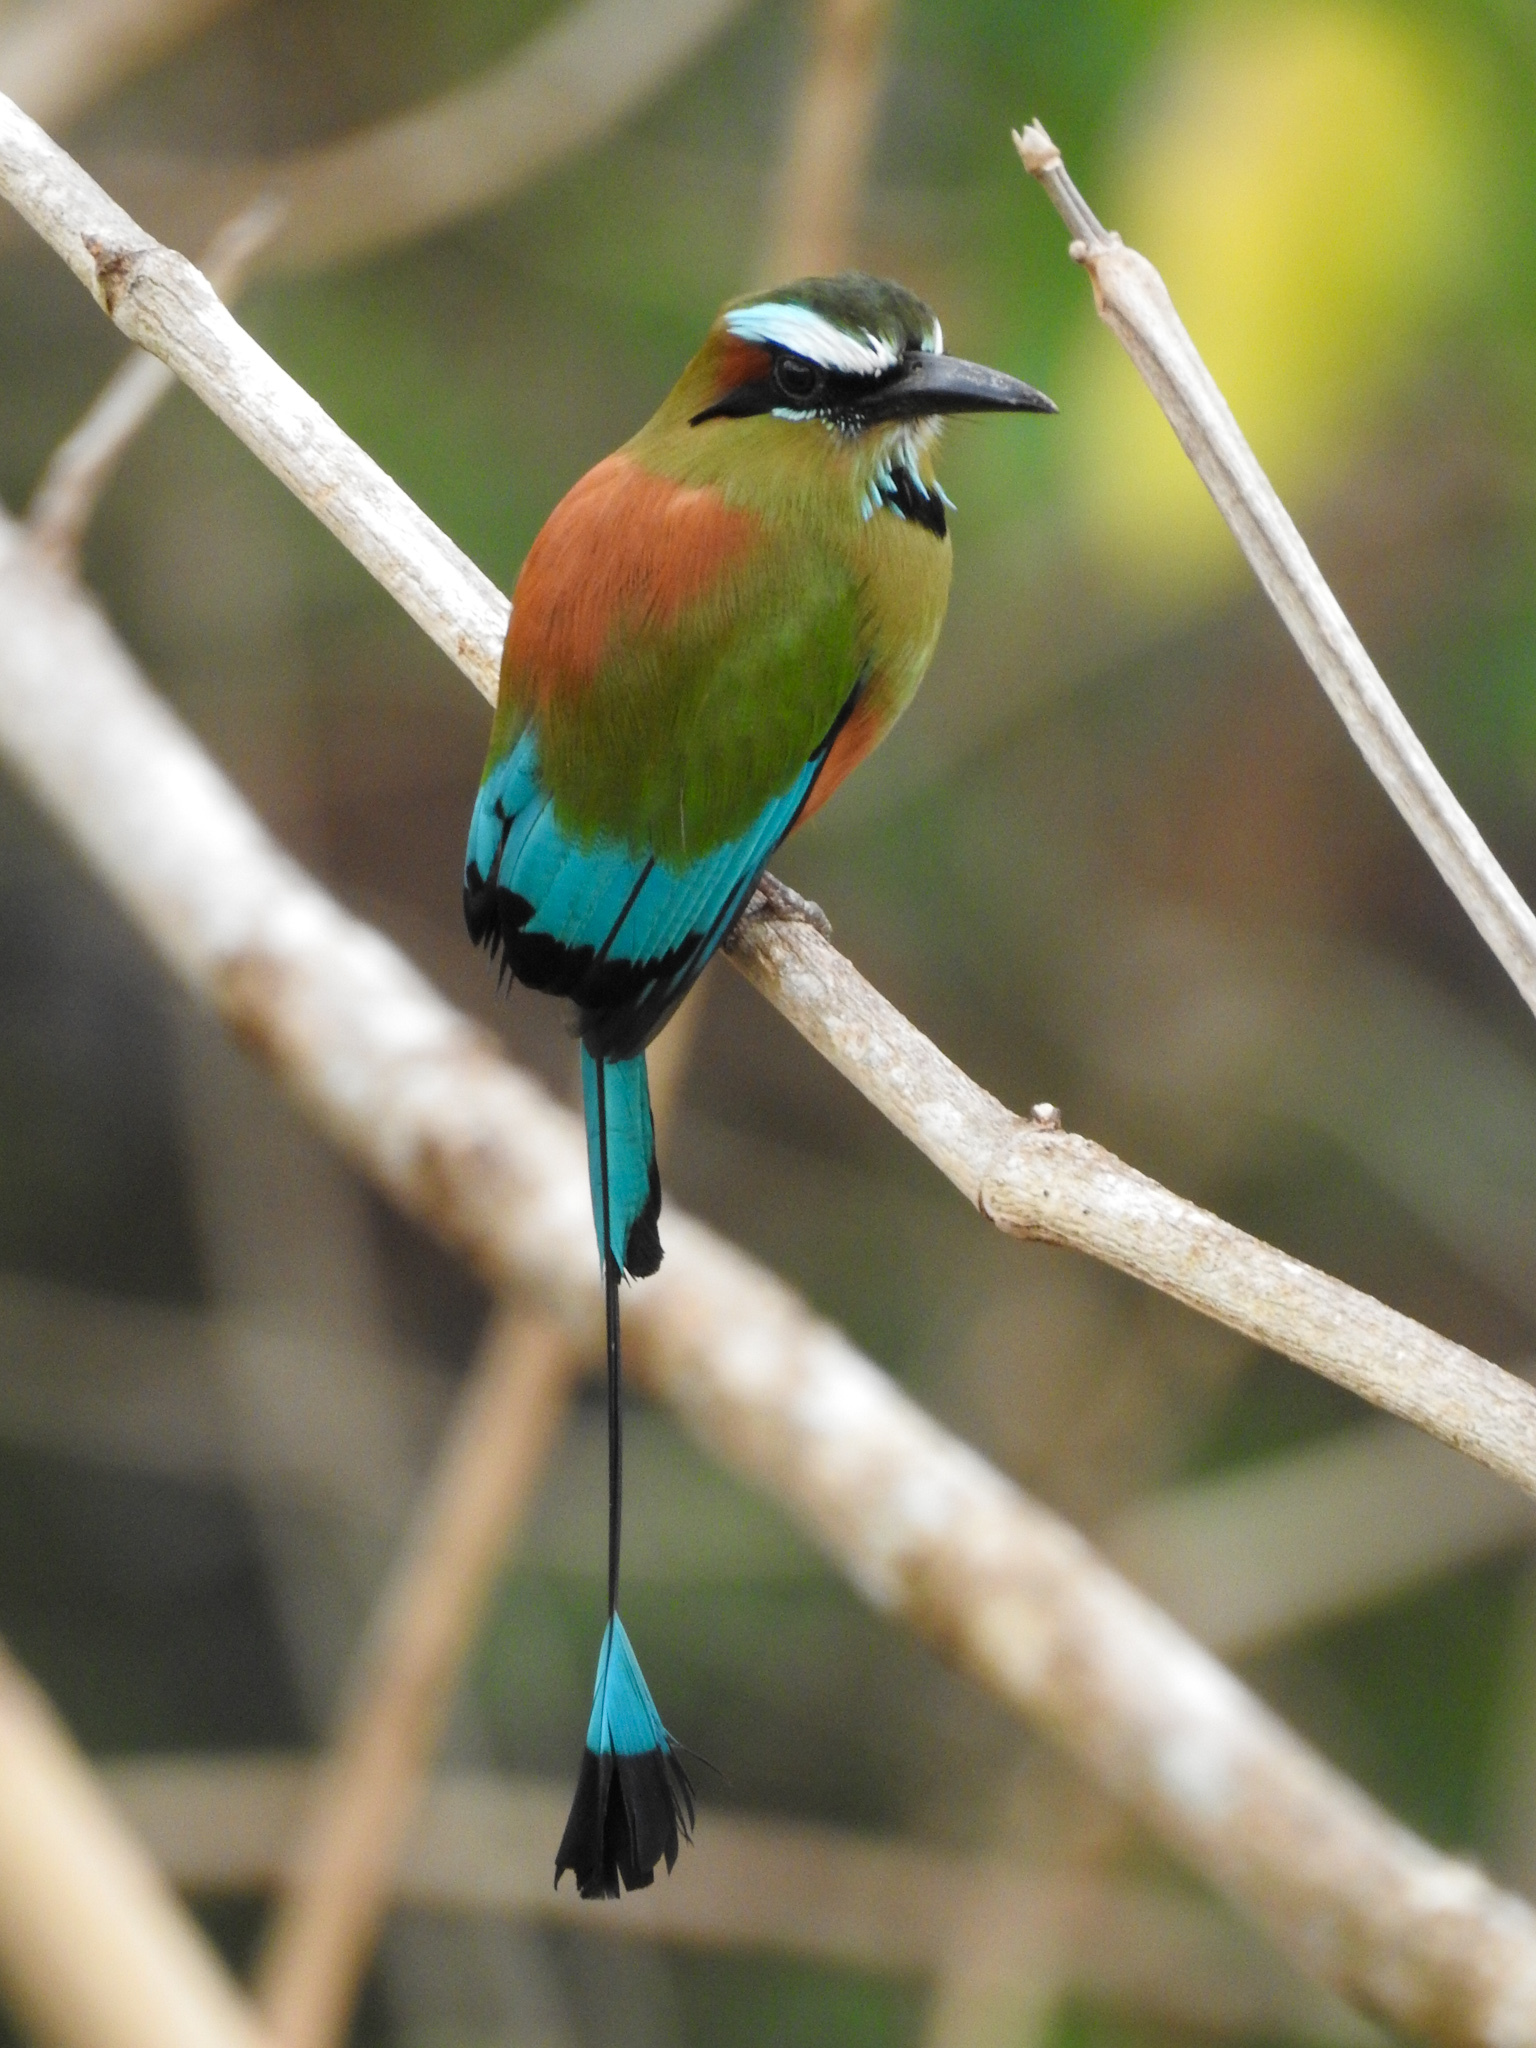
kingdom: Animalia
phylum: Chordata
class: Aves
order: Coraciiformes
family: Momotidae
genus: Eumomota
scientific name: Eumomota superciliosa
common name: Turquoise-browed motmot
